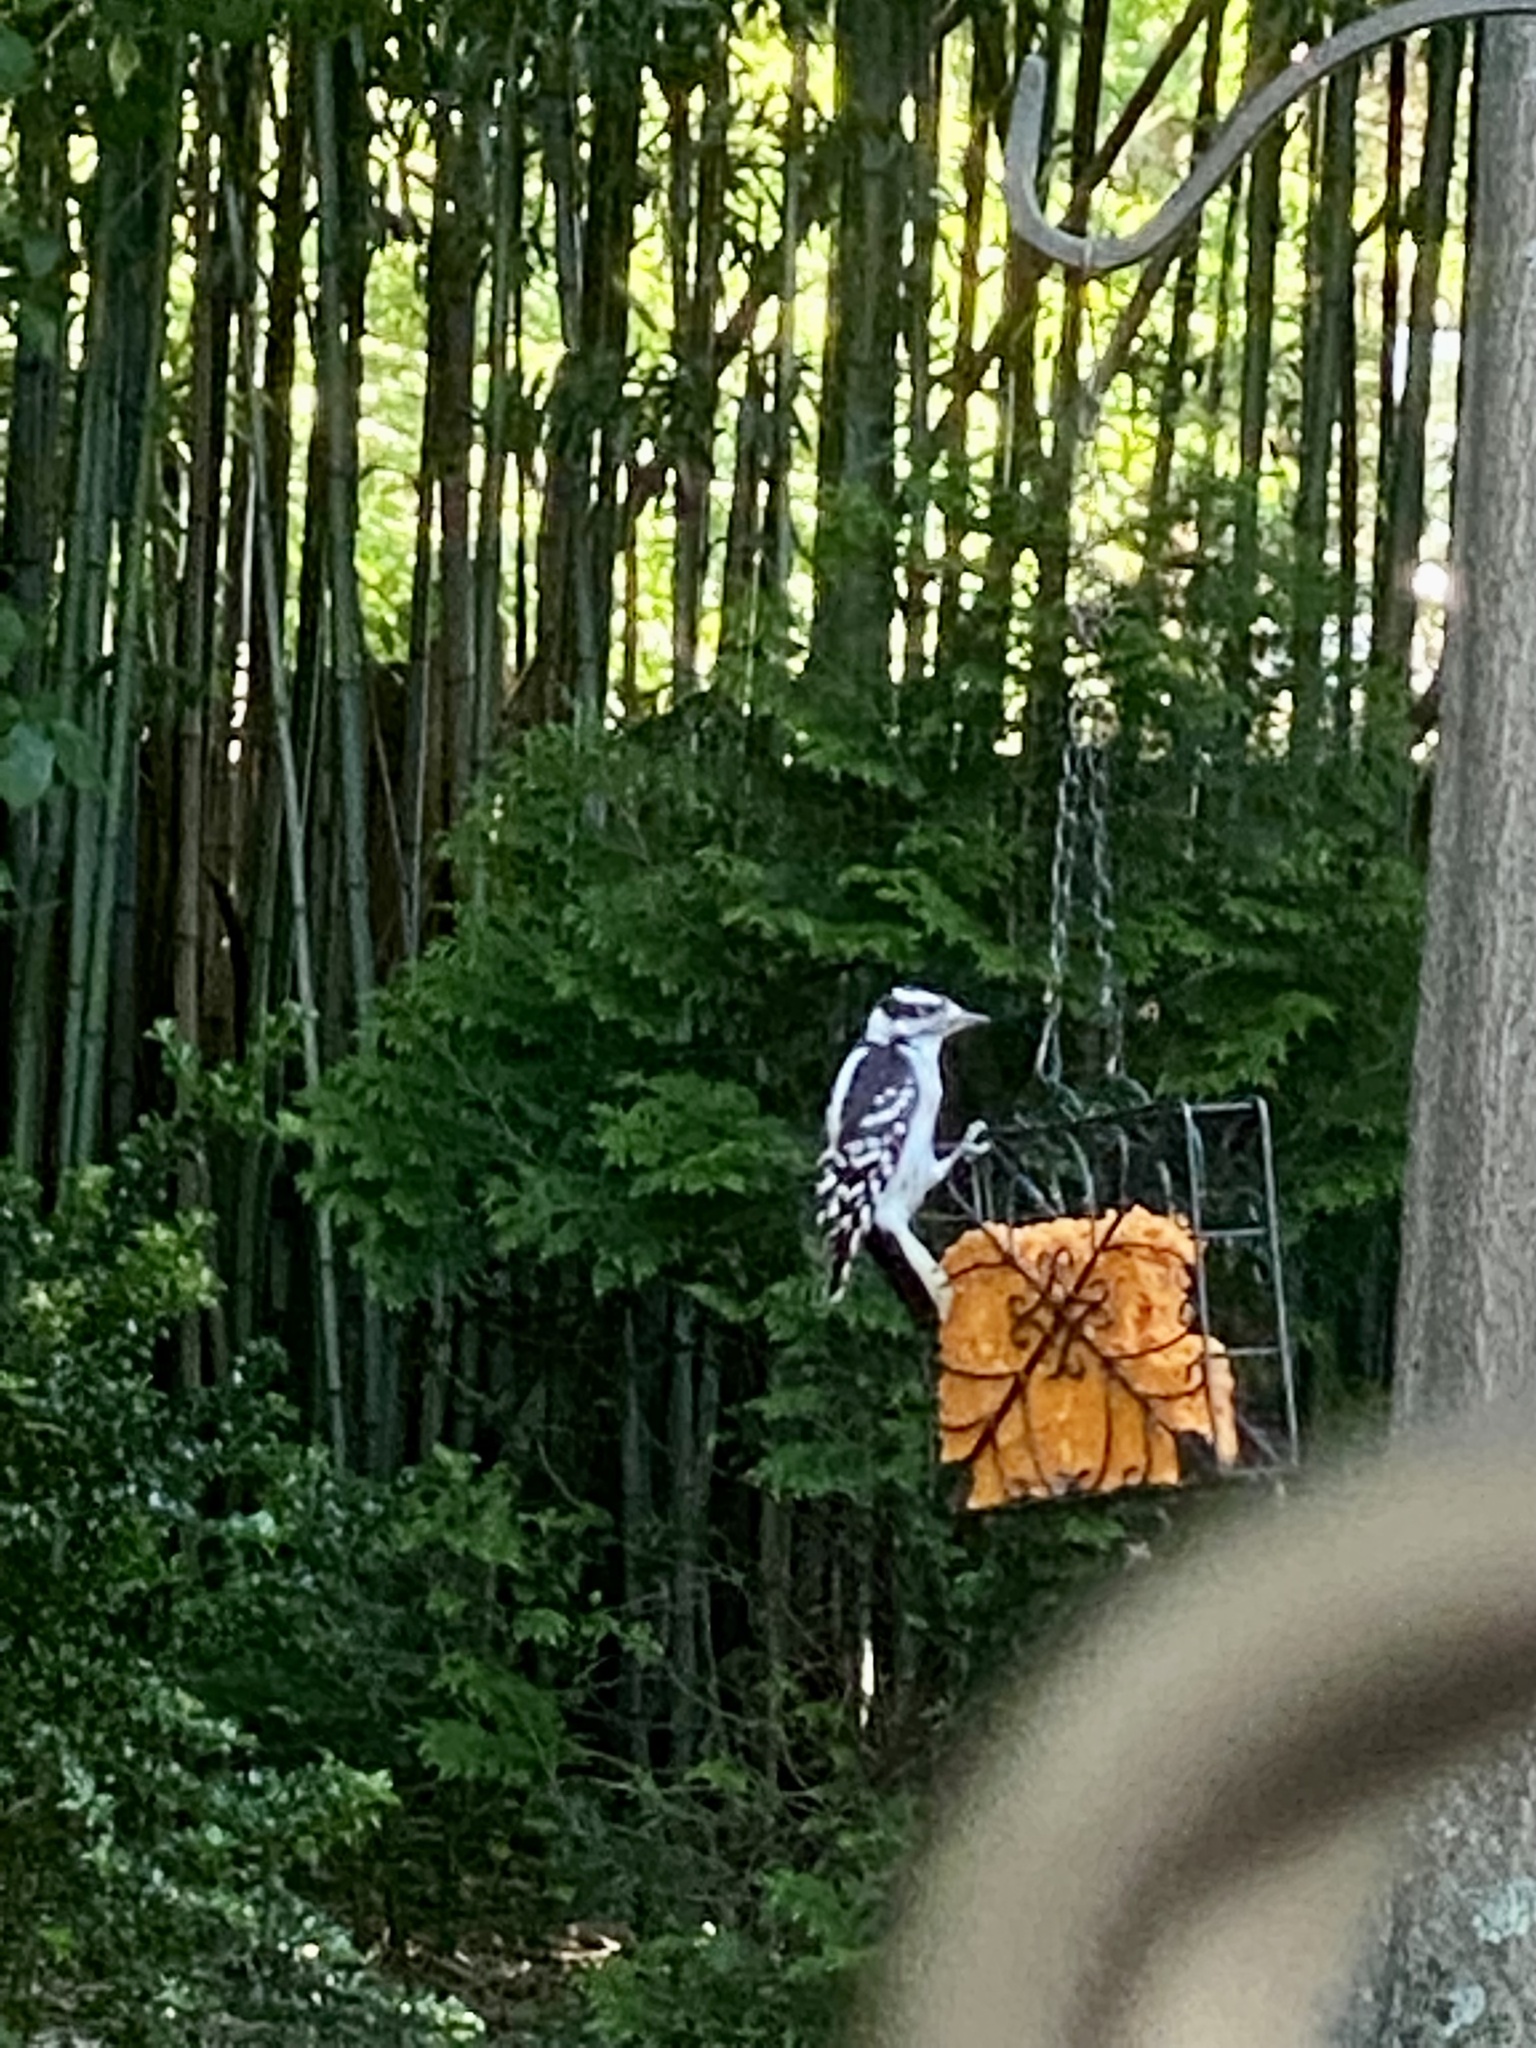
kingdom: Animalia
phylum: Chordata
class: Aves
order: Piciformes
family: Picidae
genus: Dryobates
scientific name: Dryobates pubescens
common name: Downy woodpecker
